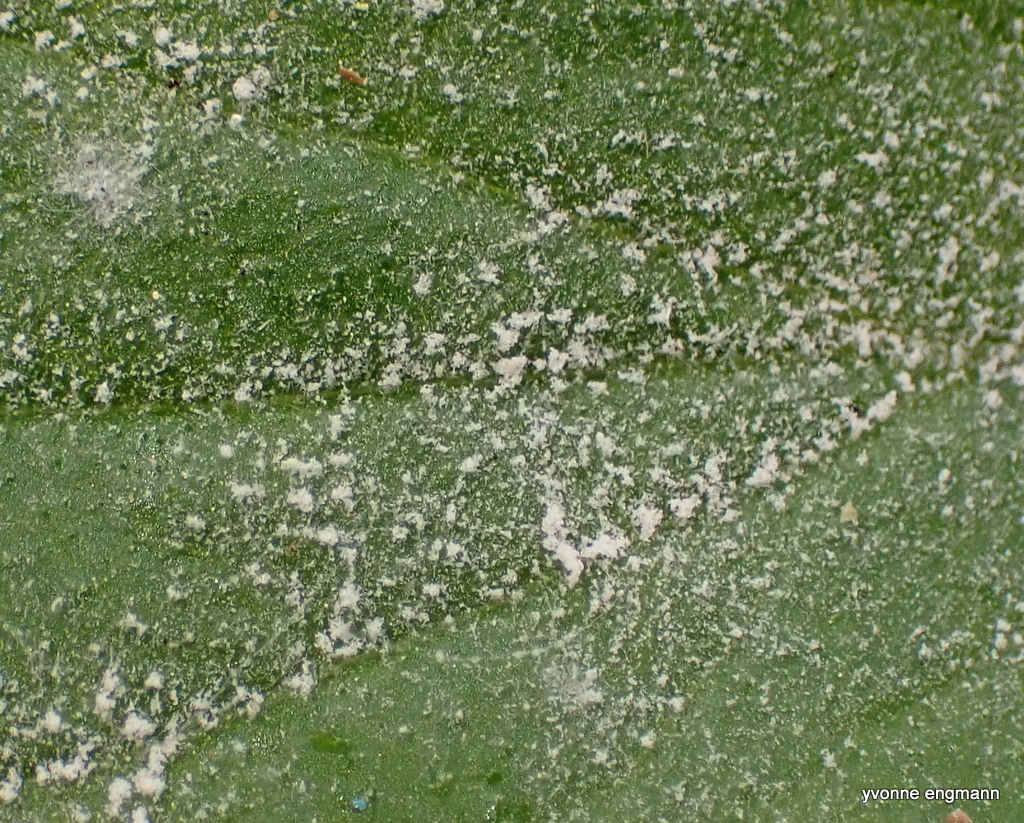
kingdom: Fungi
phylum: Ascomycota
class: Leotiomycetes
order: Helotiales
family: Erysiphaceae
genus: Podosphaera
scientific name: Podosphaera aphanis
